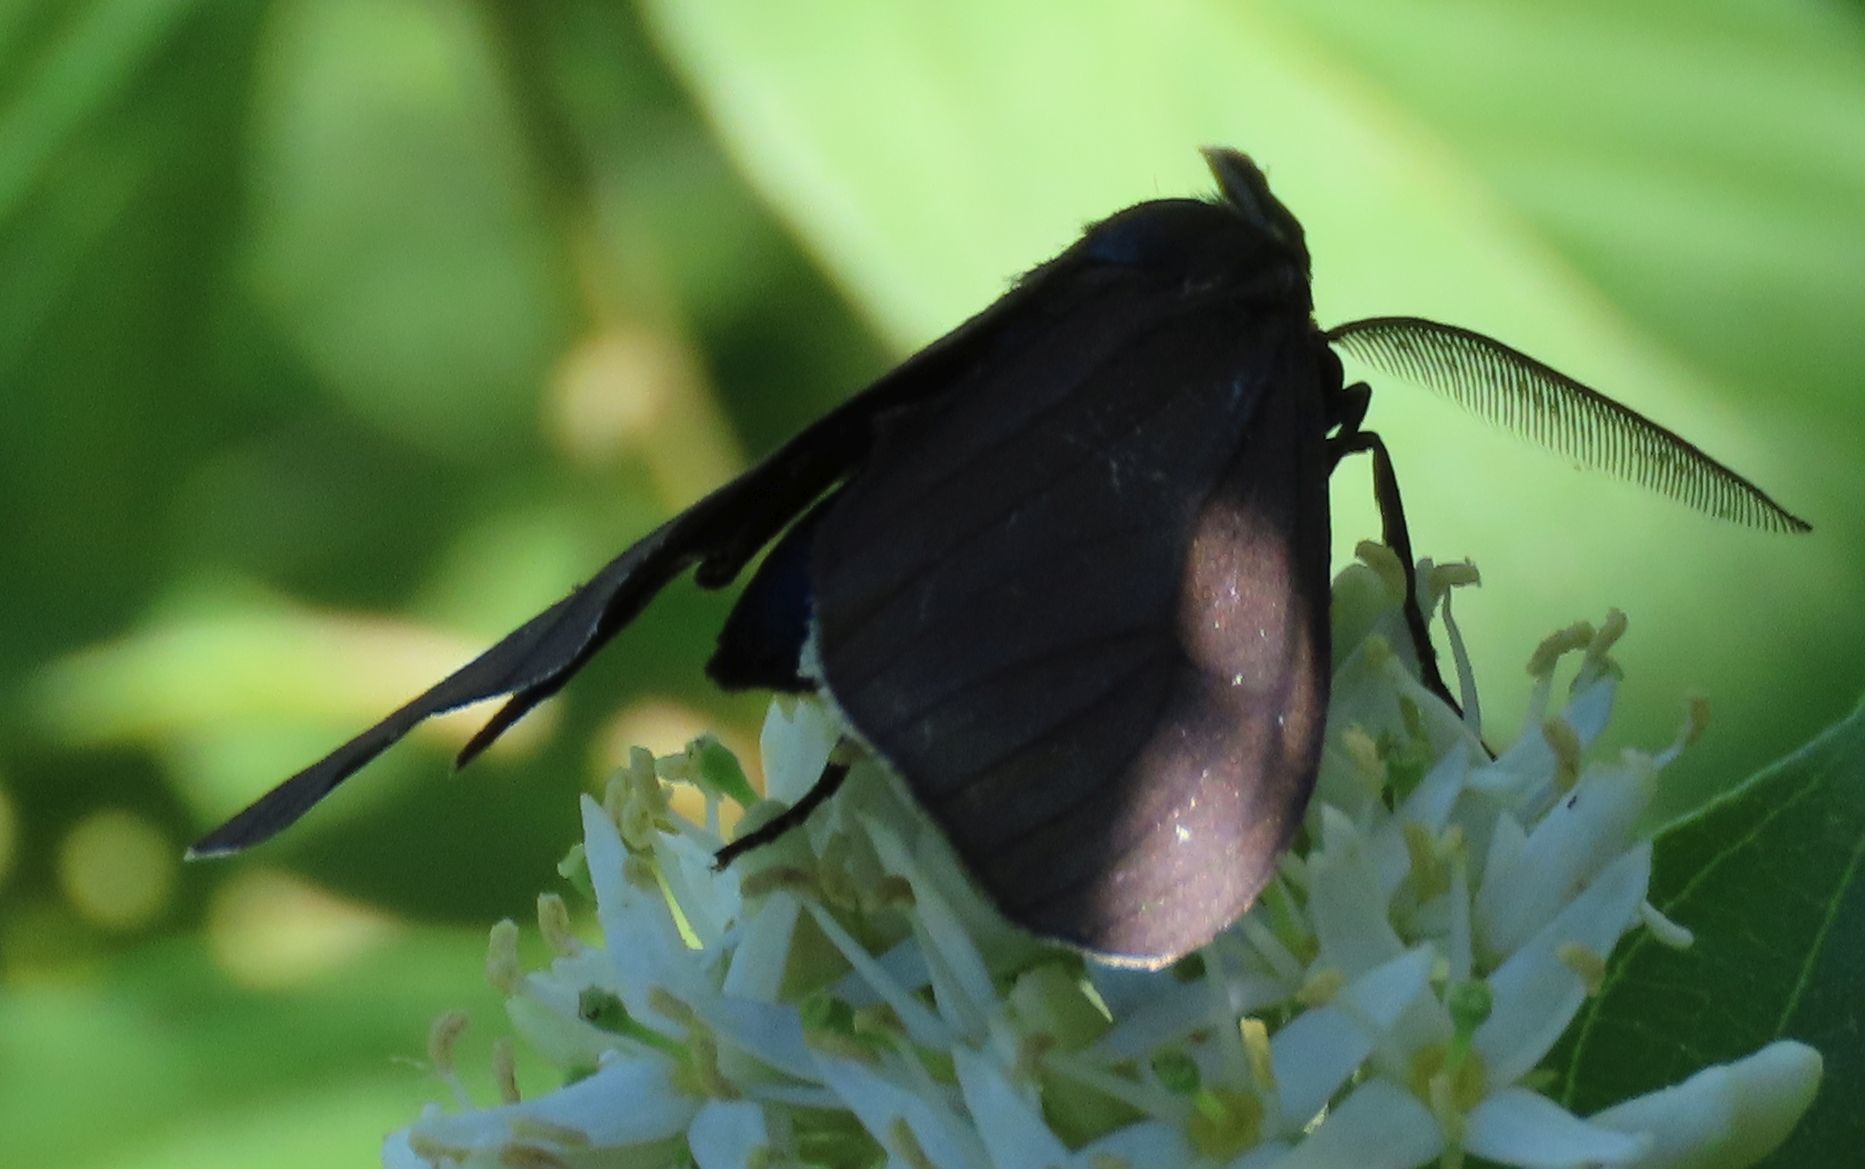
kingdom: Animalia
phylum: Arthropoda
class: Insecta
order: Lepidoptera
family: Erebidae
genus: Ctenucha
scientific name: Ctenucha virginica
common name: Virginia ctenucha moth
